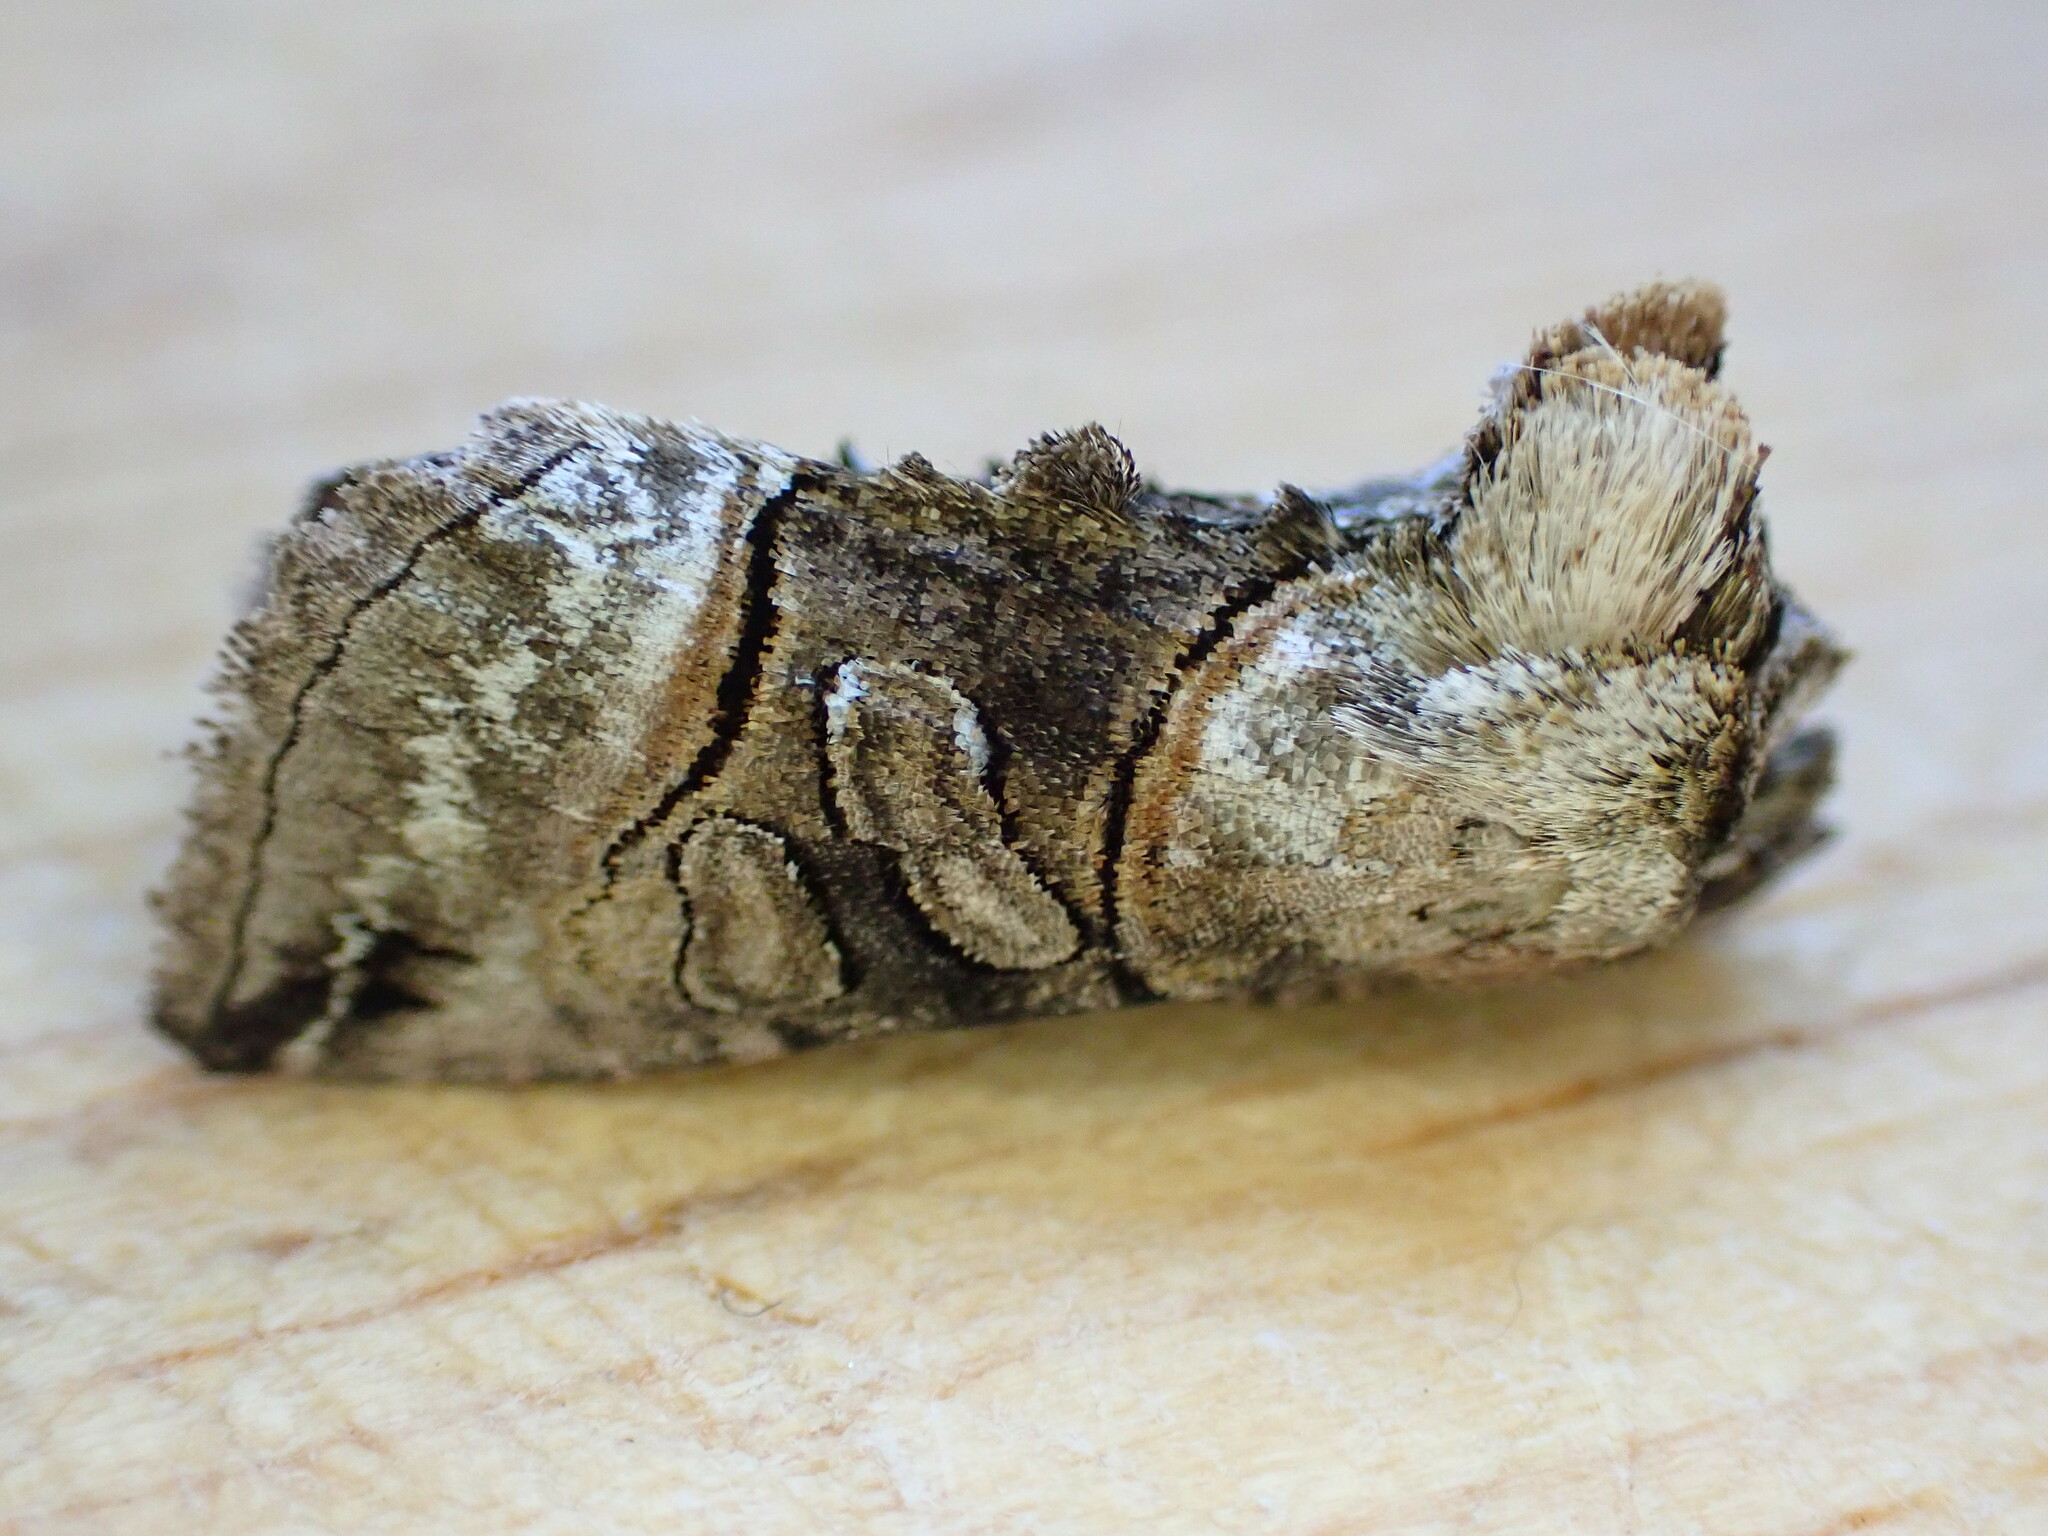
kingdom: Animalia
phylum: Arthropoda
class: Insecta
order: Lepidoptera
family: Noctuidae
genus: Abrostola
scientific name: Abrostola tripartita
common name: Spectacle
